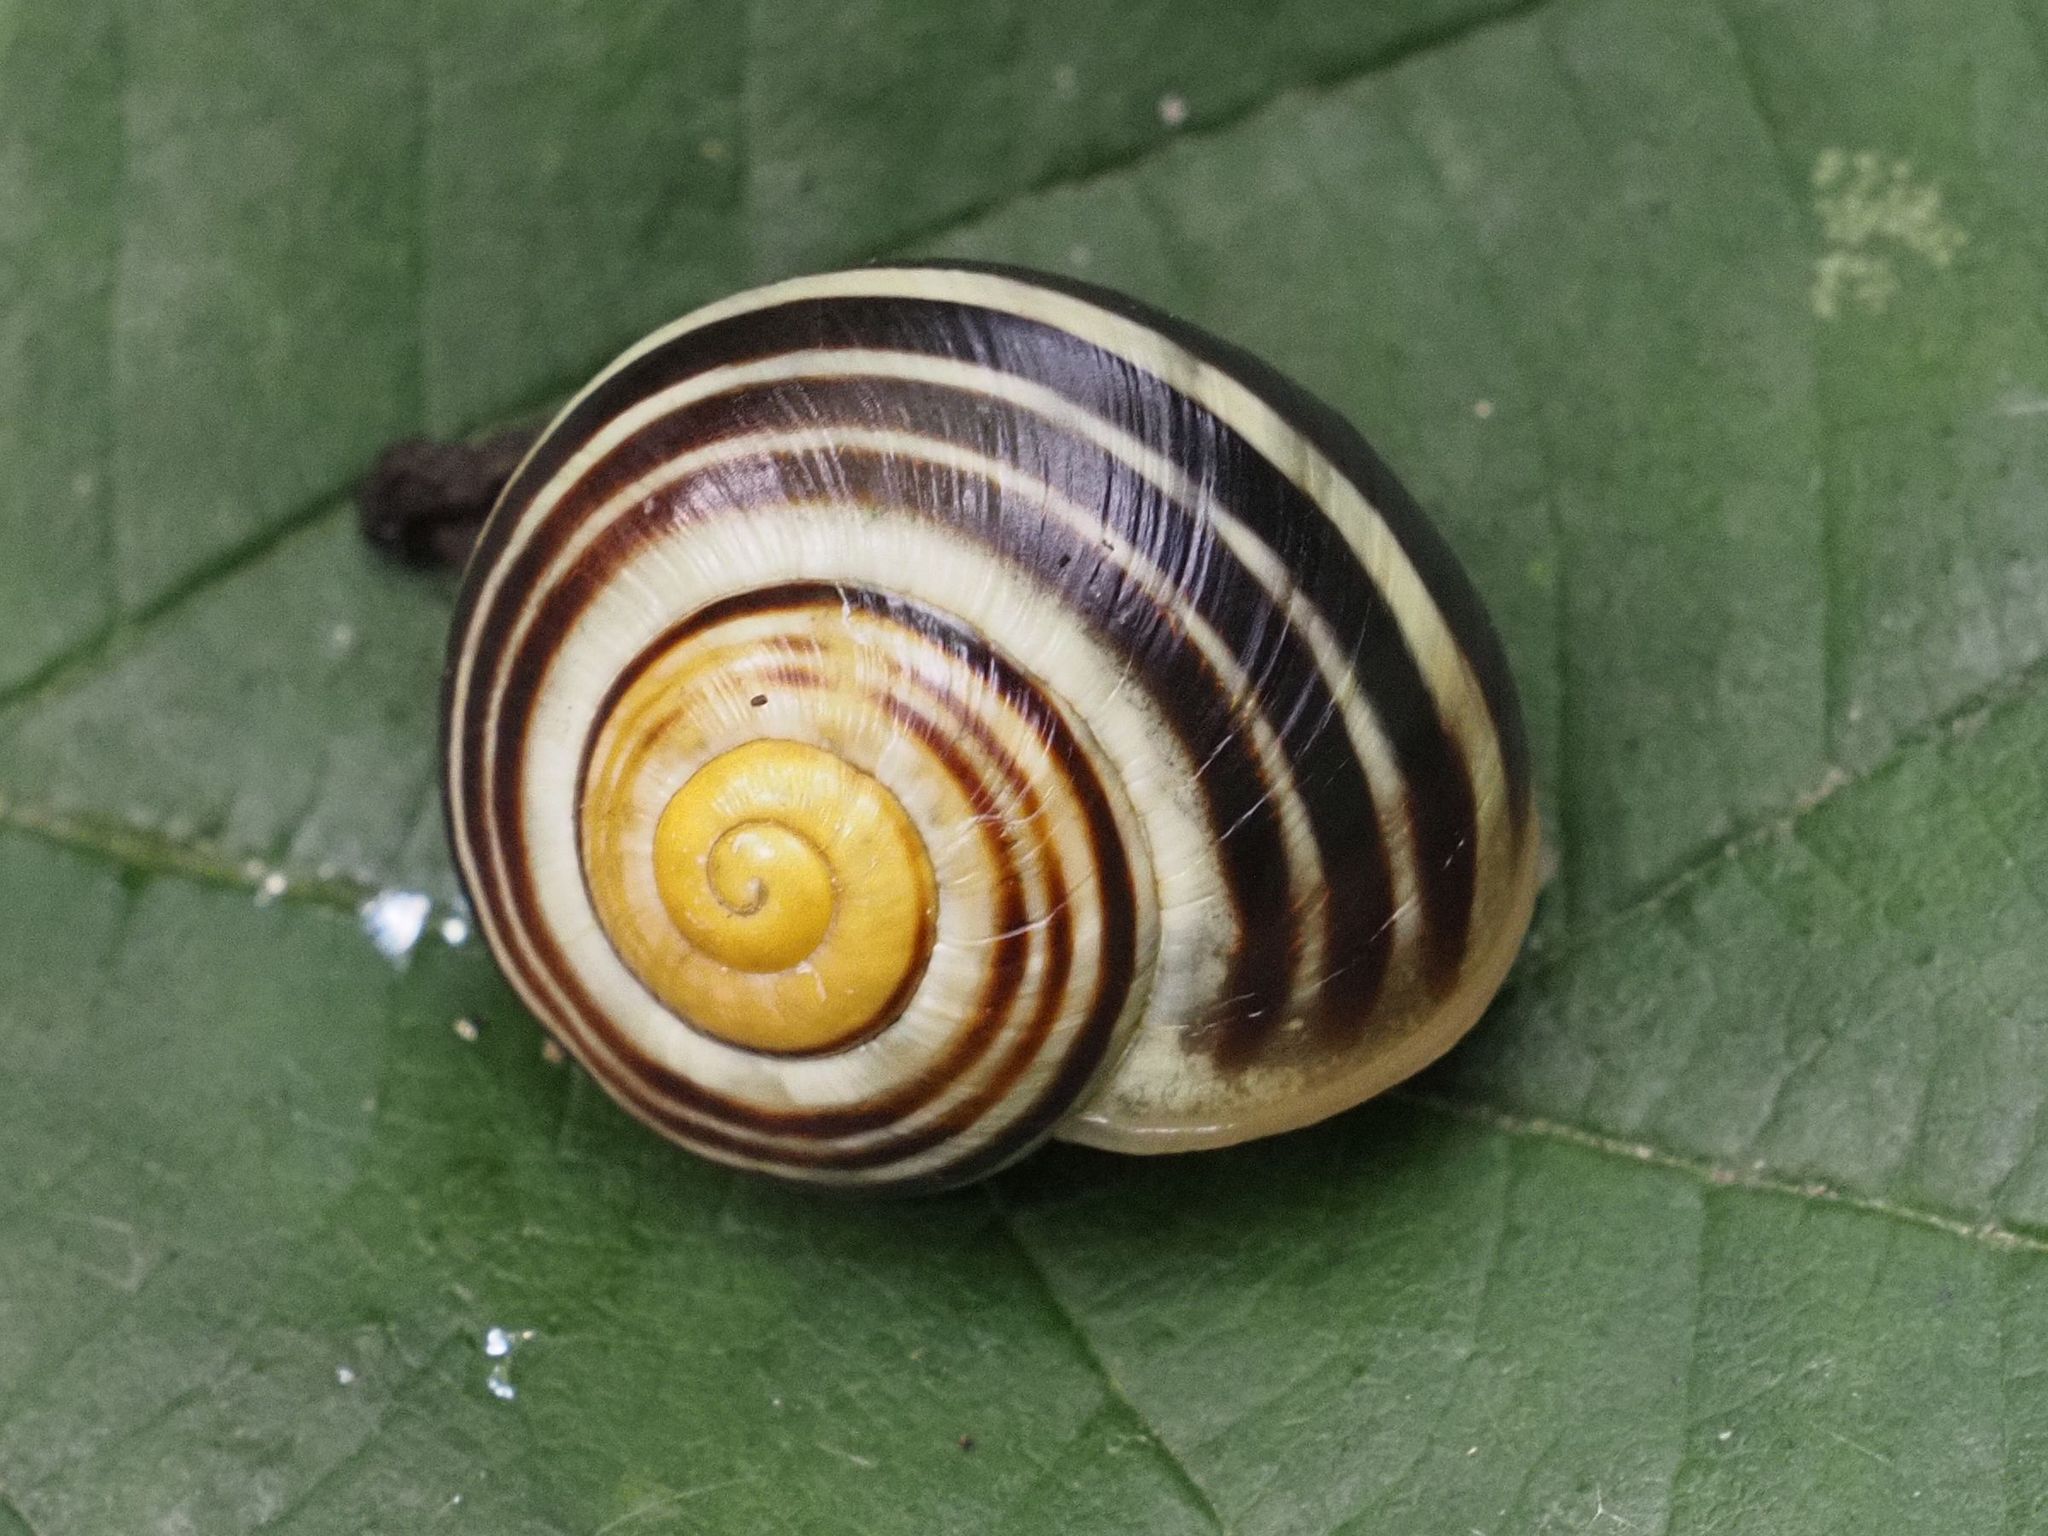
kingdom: Animalia
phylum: Mollusca
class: Gastropoda
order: Stylommatophora
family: Helicidae
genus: Cepaea
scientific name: Cepaea hortensis
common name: White-lip gardensnail
